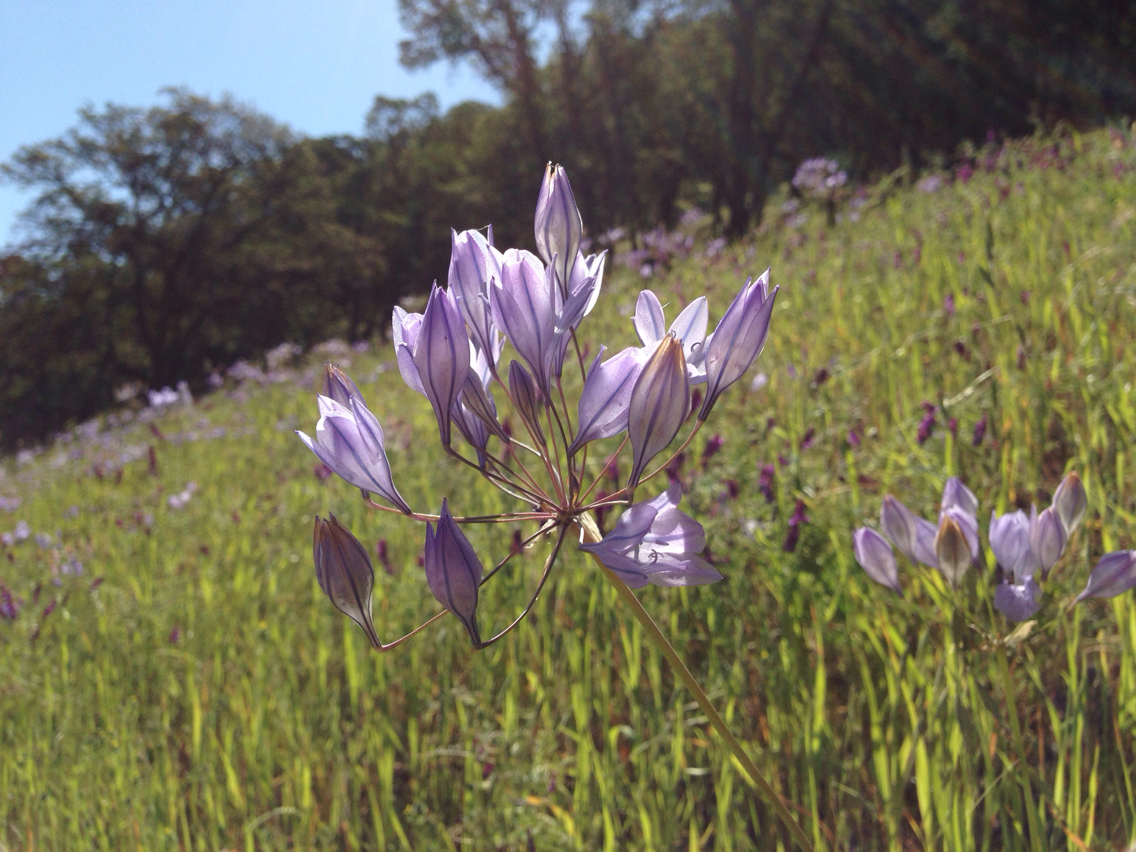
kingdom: Plantae
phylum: Tracheophyta
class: Liliopsida
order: Asparagales
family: Asparagaceae
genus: Triteleia
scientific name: Triteleia laxa
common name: Triplet-lily
